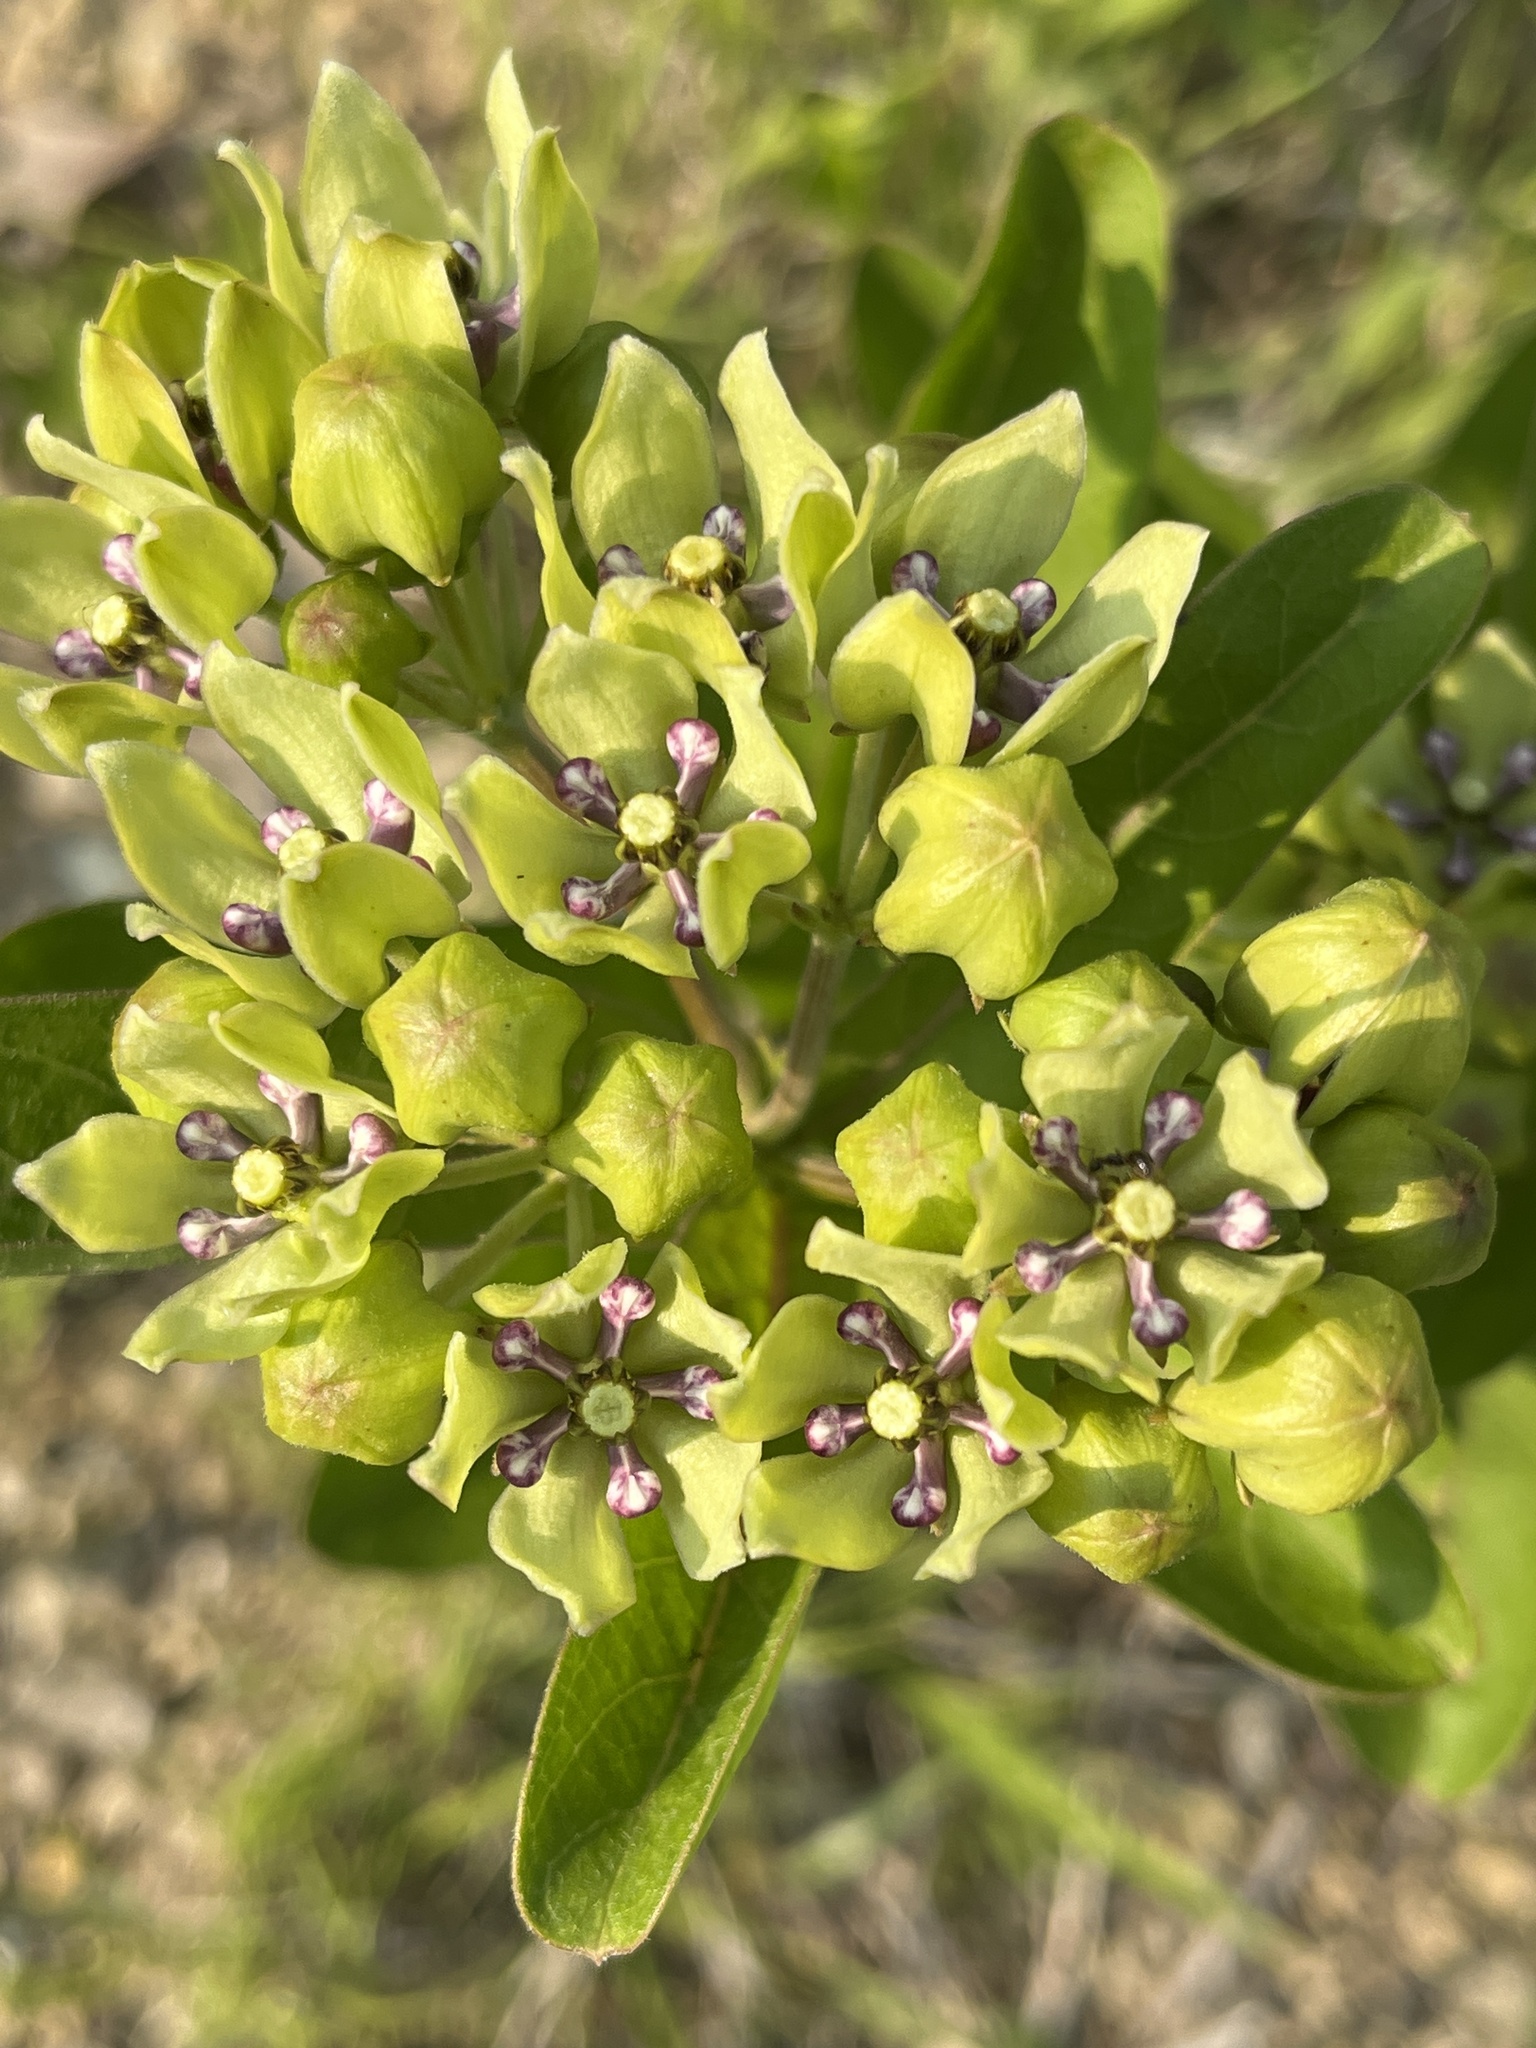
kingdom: Plantae
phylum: Tracheophyta
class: Magnoliopsida
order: Gentianales
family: Apocynaceae
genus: Asclepias
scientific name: Asclepias viridis
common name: Antelope-horns
